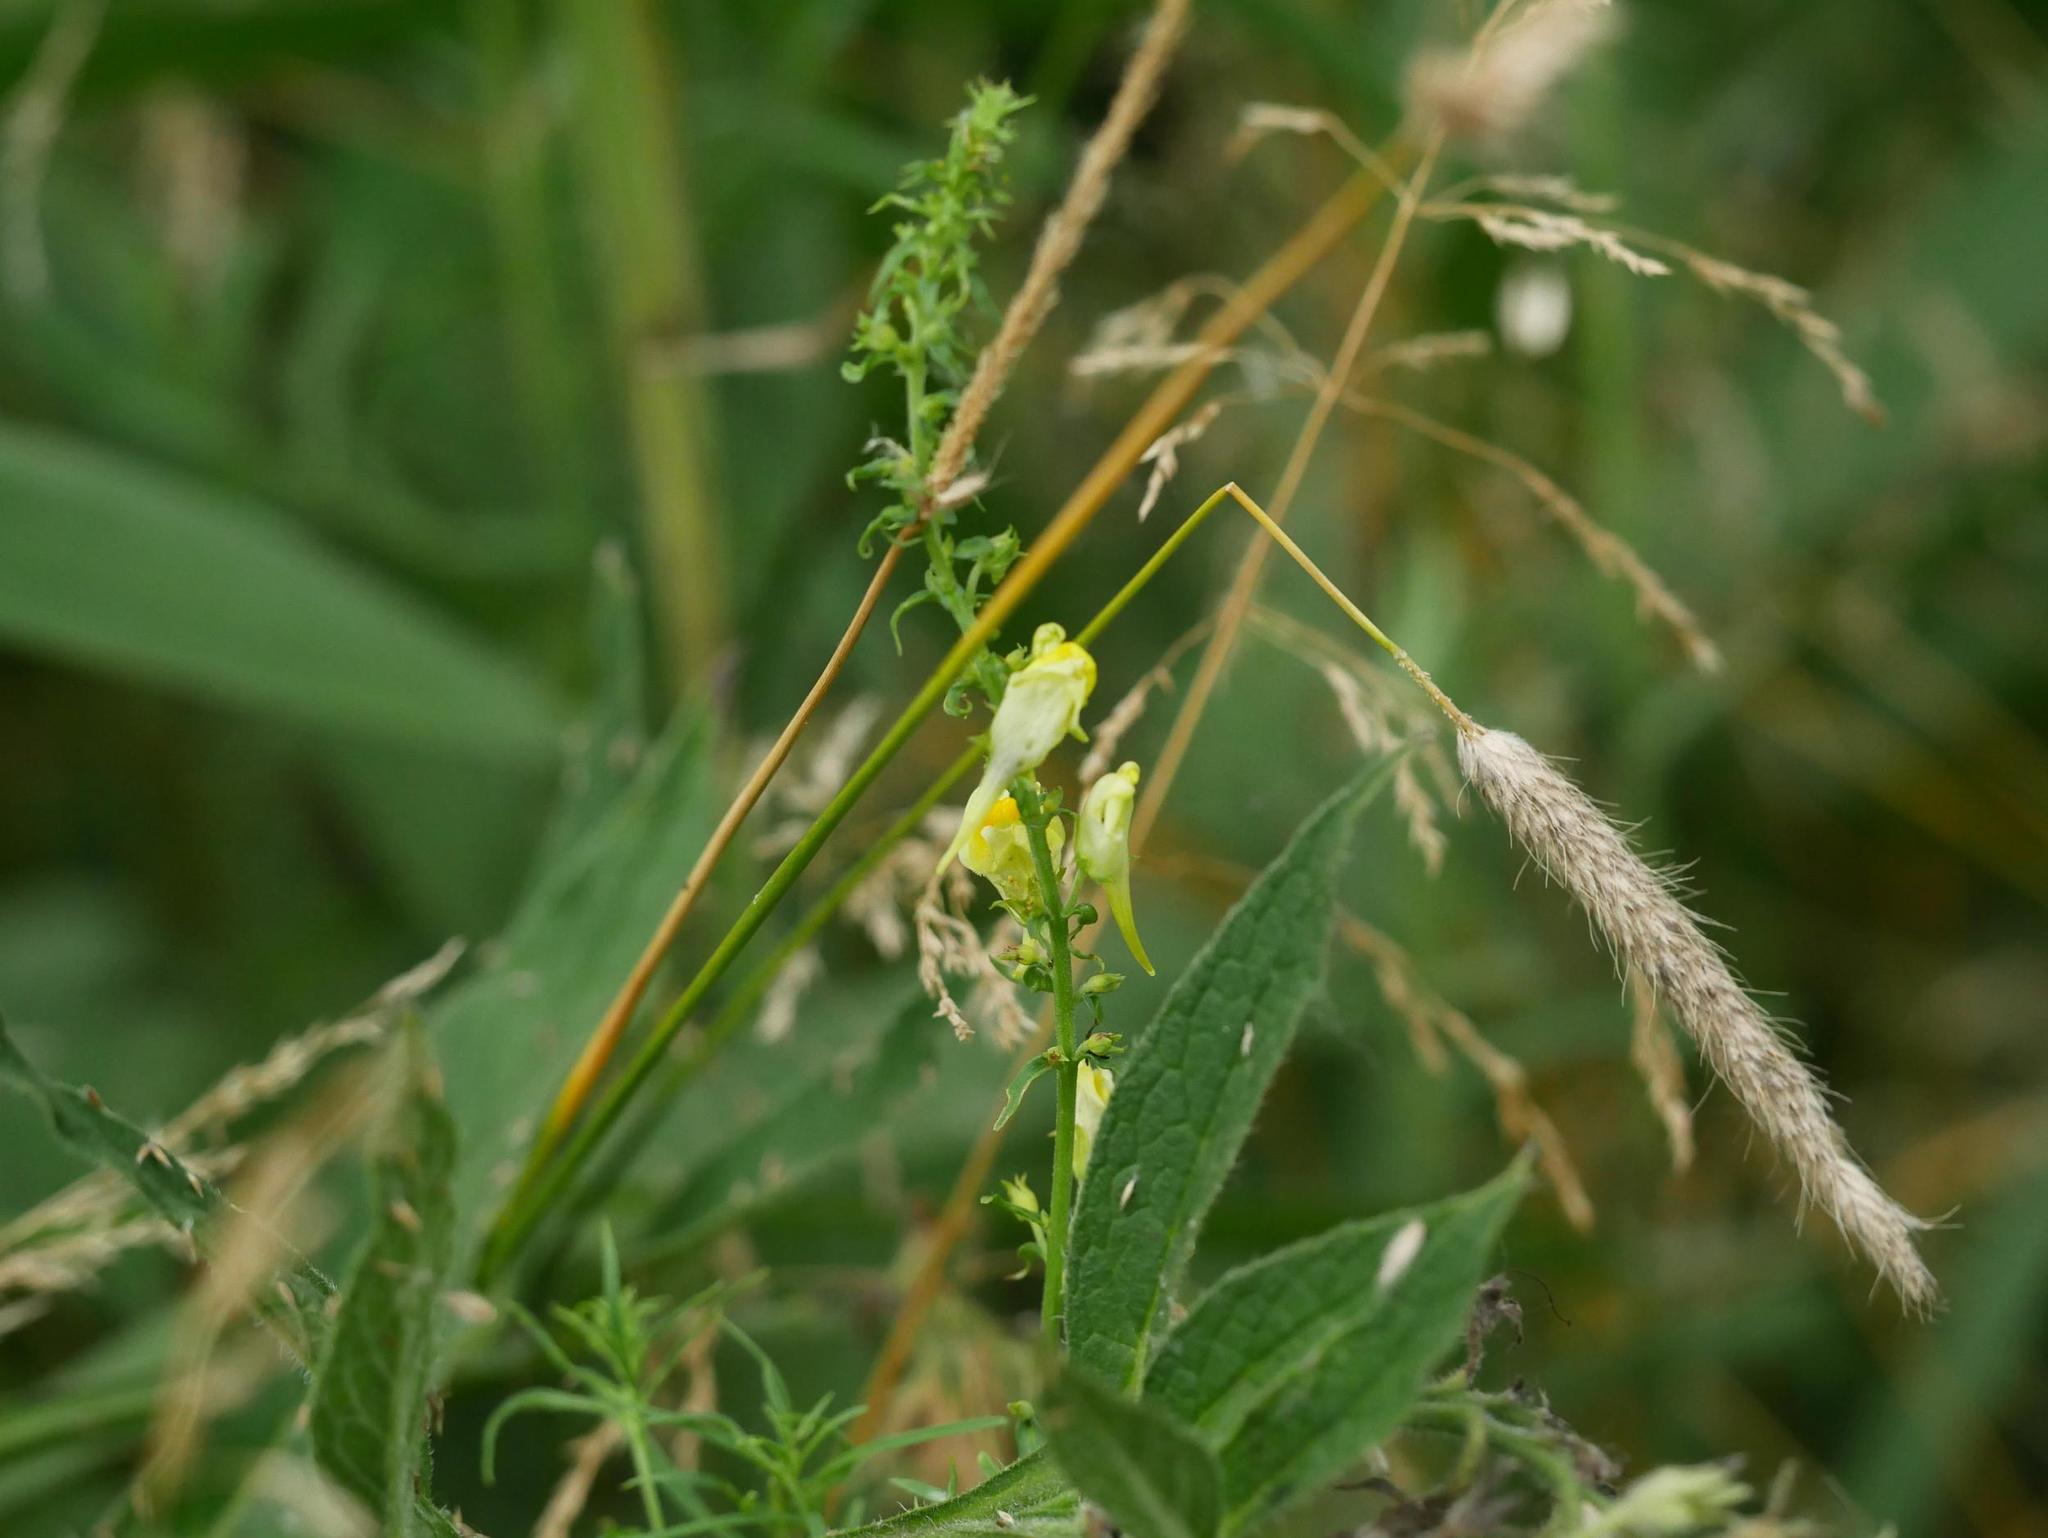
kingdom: Plantae
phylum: Tracheophyta
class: Magnoliopsida
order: Lamiales
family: Plantaginaceae
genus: Linaria
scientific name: Linaria vulgaris
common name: Butter and eggs
